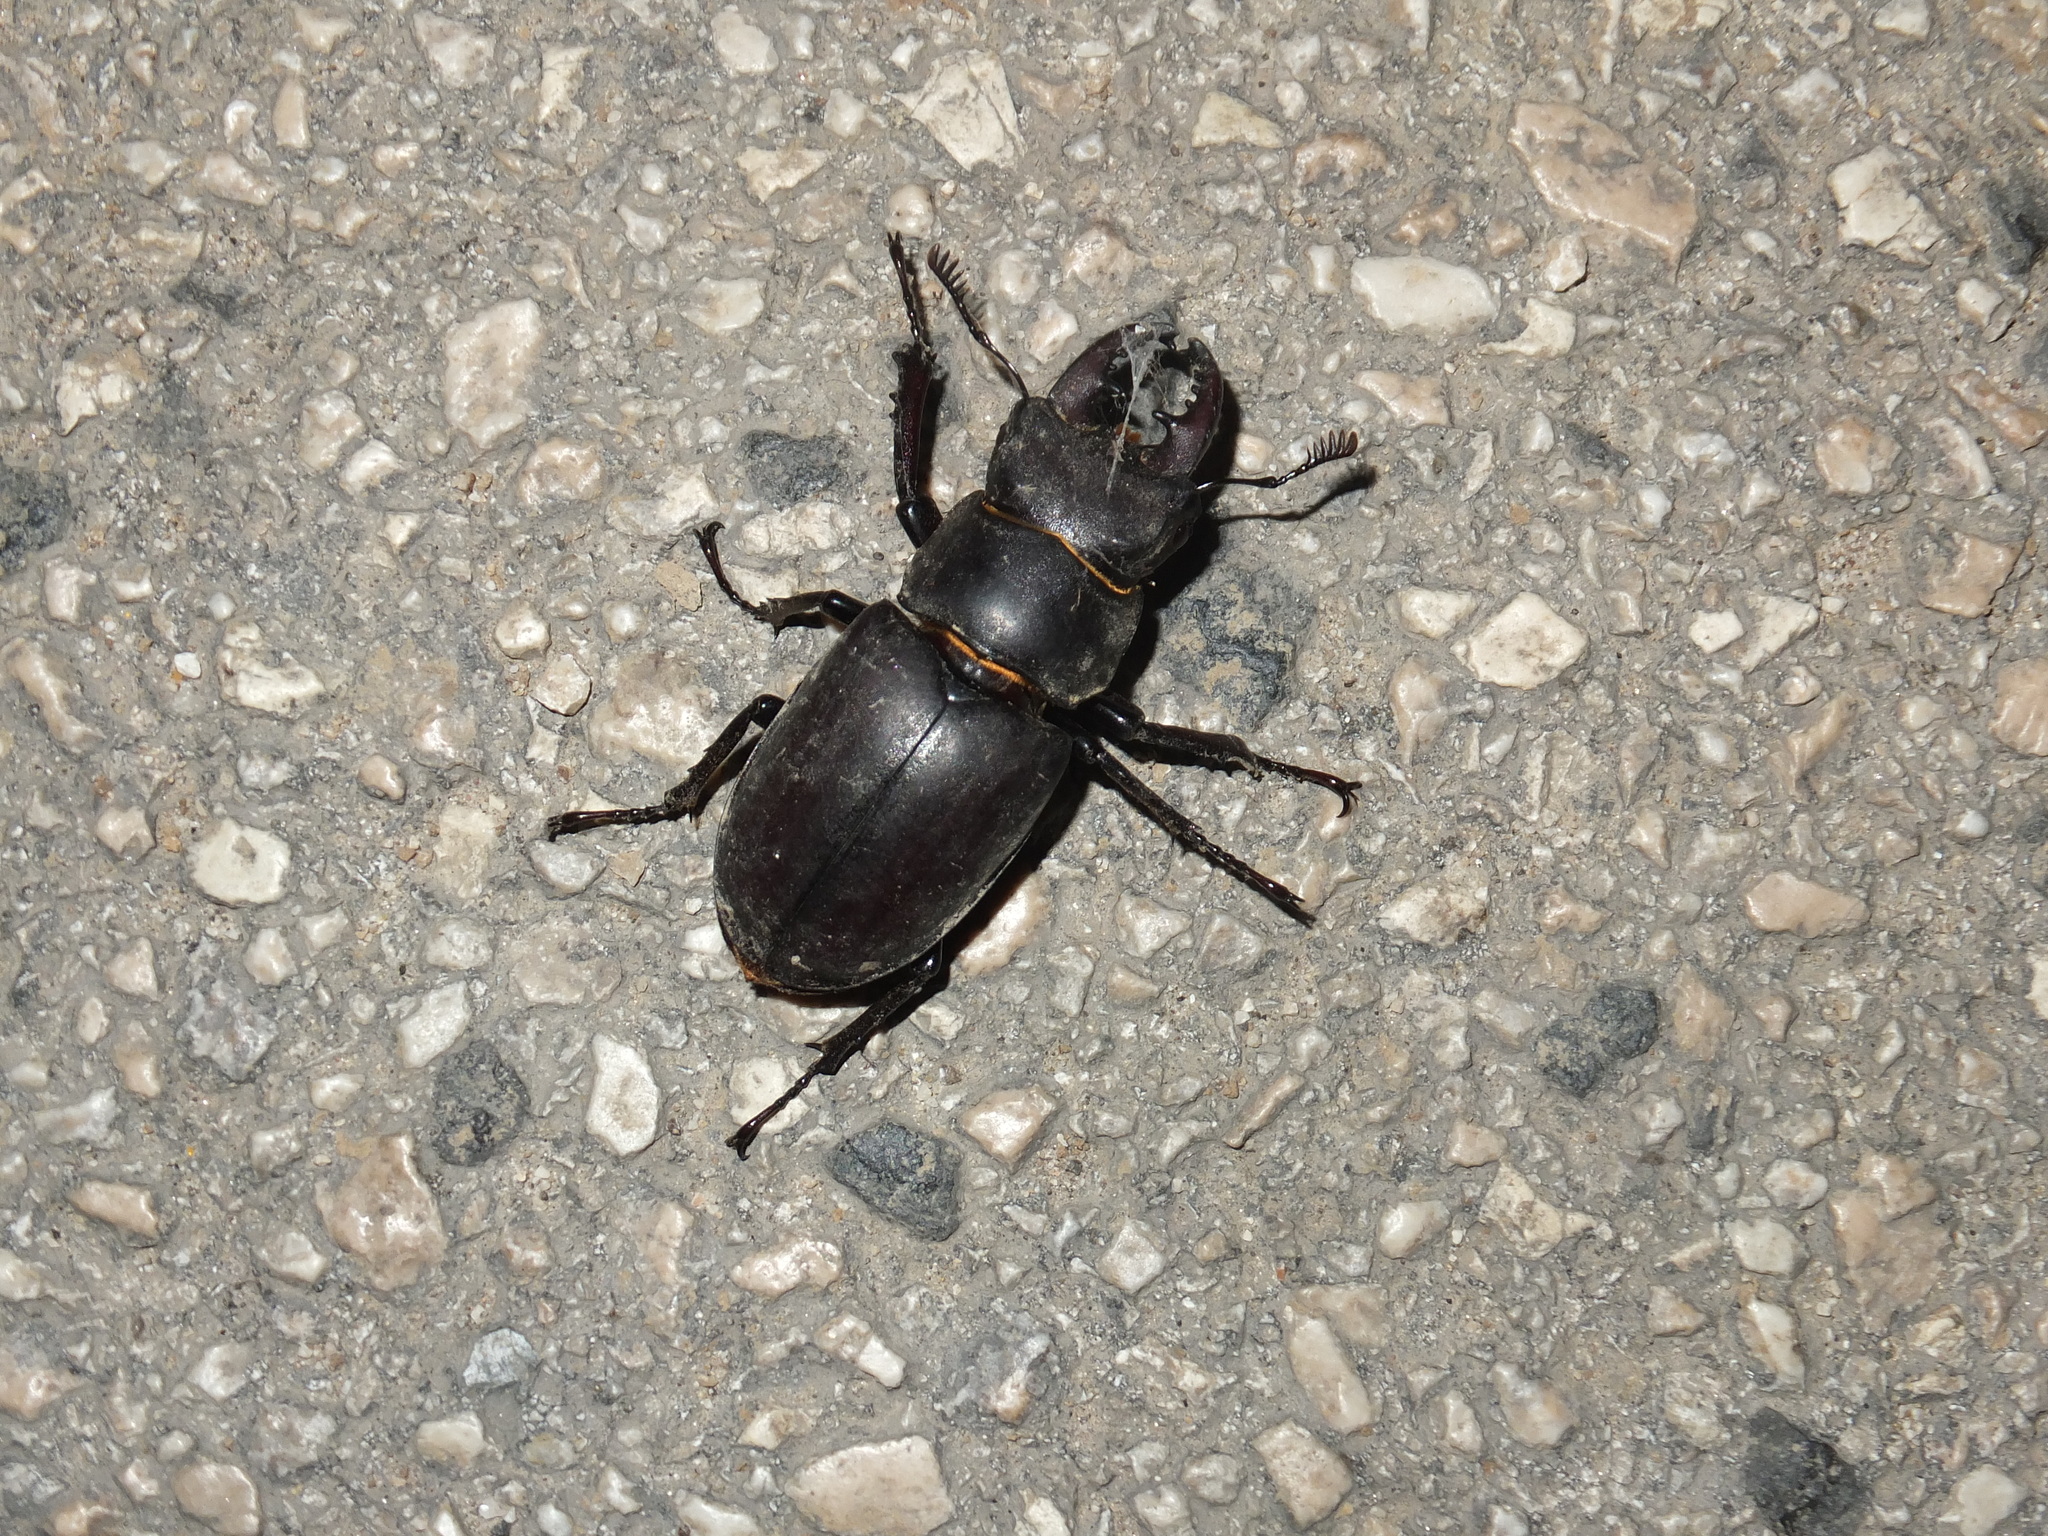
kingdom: Animalia
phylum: Arthropoda
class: Insecta
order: Coleoptera
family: Lucanidae
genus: Lucanus
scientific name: Lucanus tetraodon
